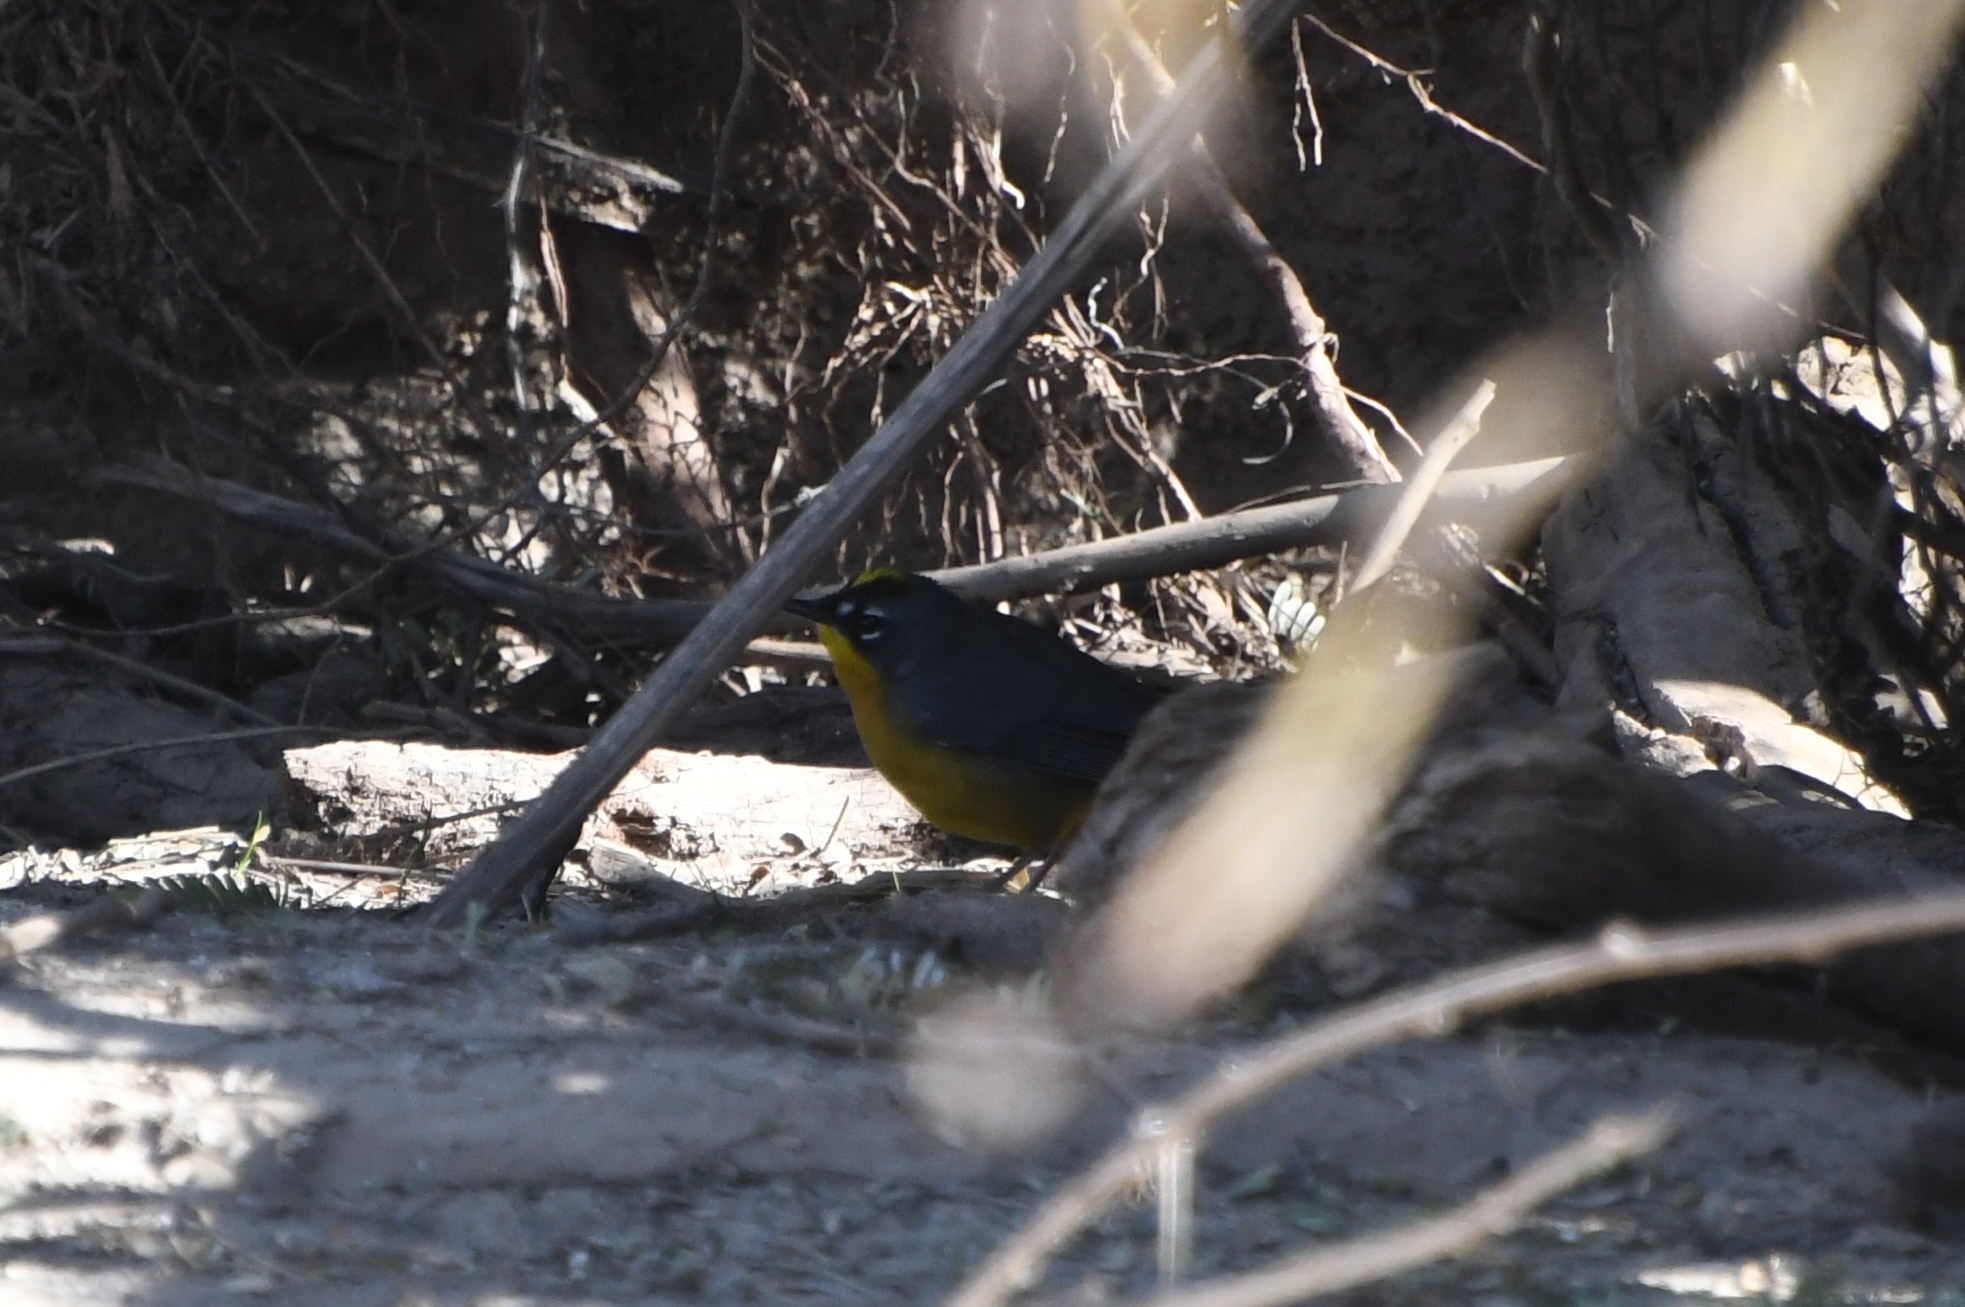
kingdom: Animalia
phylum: Chordata
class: Aves
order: Passeriformes
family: Parulidae
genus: Basileuterus
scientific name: Basileuterus lachrymosus
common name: Fan-tailed warbler
